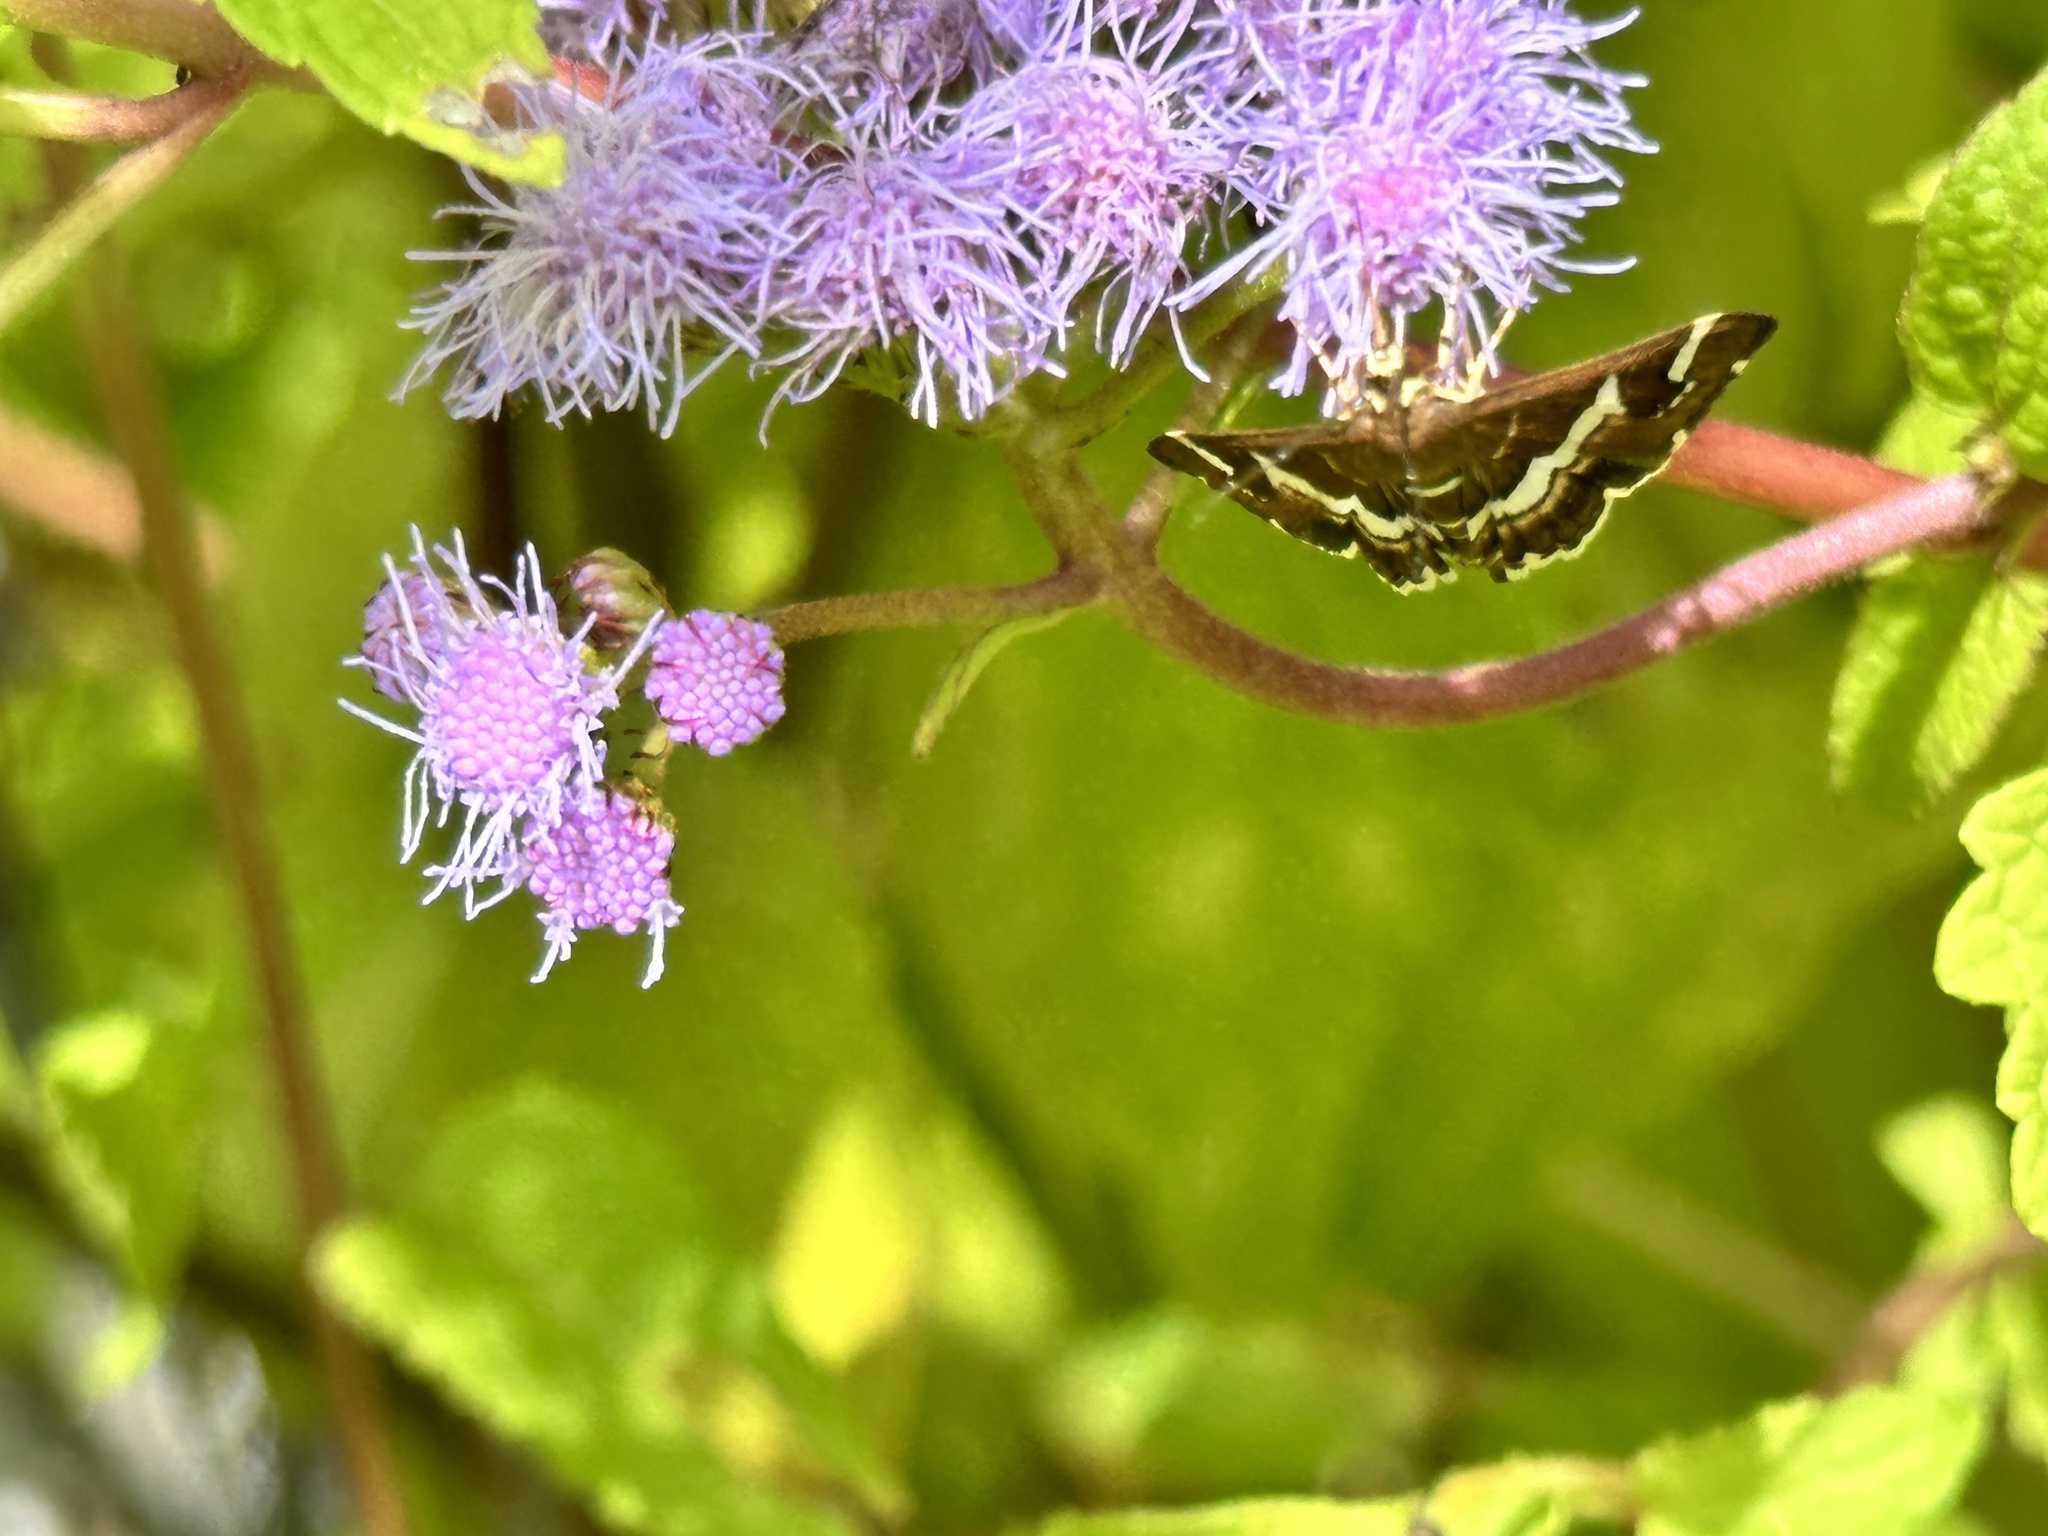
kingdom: Animalia
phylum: Arthropoda
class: Insecta
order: Lepidoptera
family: Crambidae
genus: Spoladea
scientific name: Spoladea recurvalis
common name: Beet webworm moth
